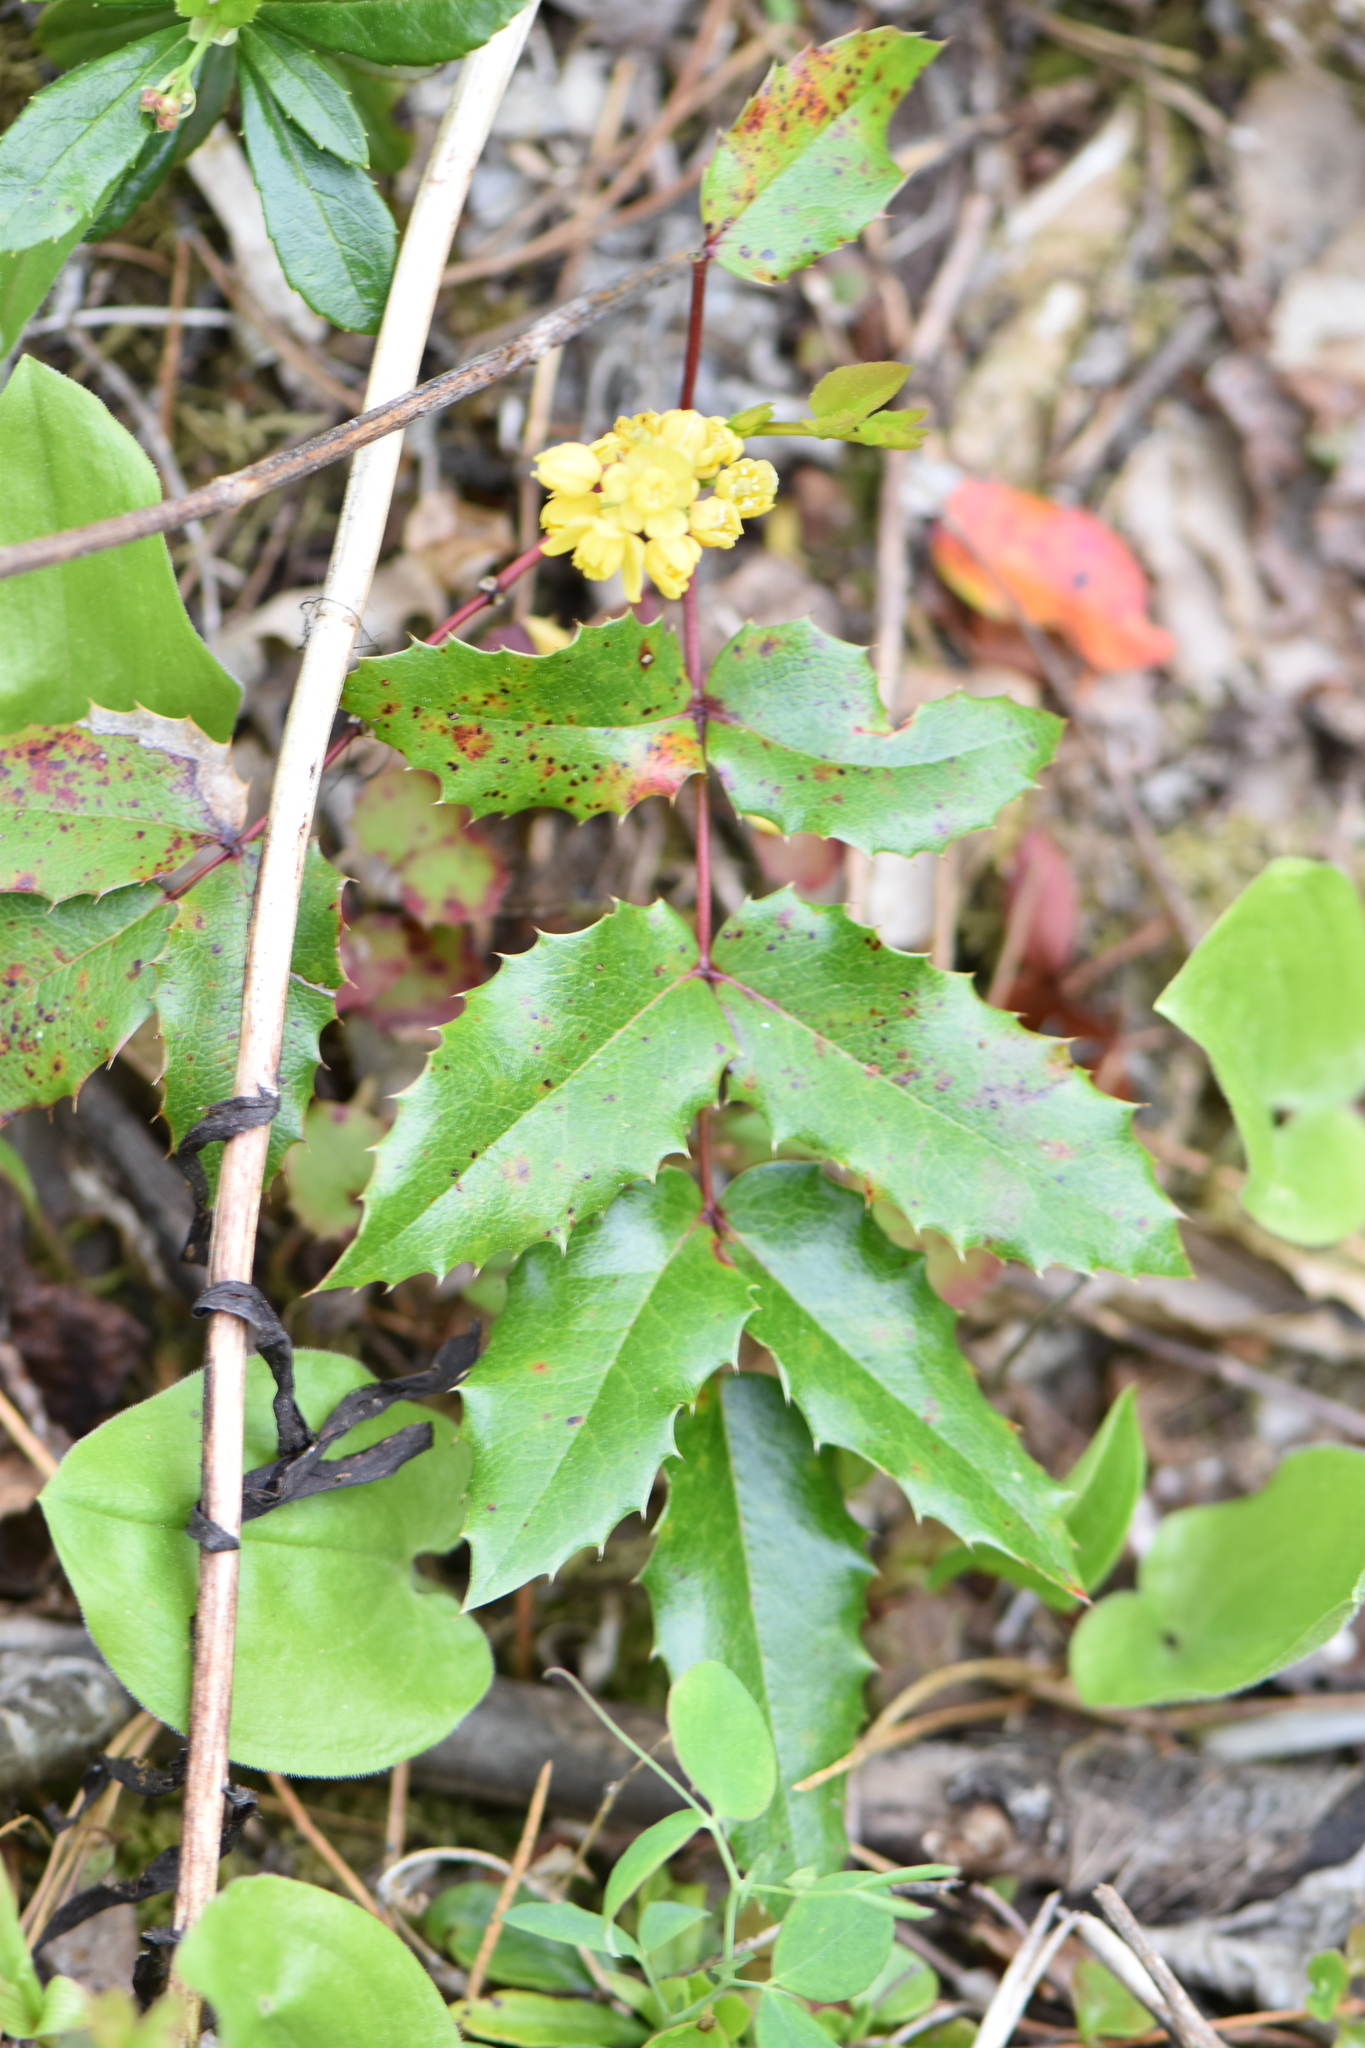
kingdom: Plantae
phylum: Tracheophyta
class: Magnoliopsida
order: Ranunculales
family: Berberidaceae
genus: Mahonia
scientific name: Mahonia aquifolium
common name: Oregon-grape
